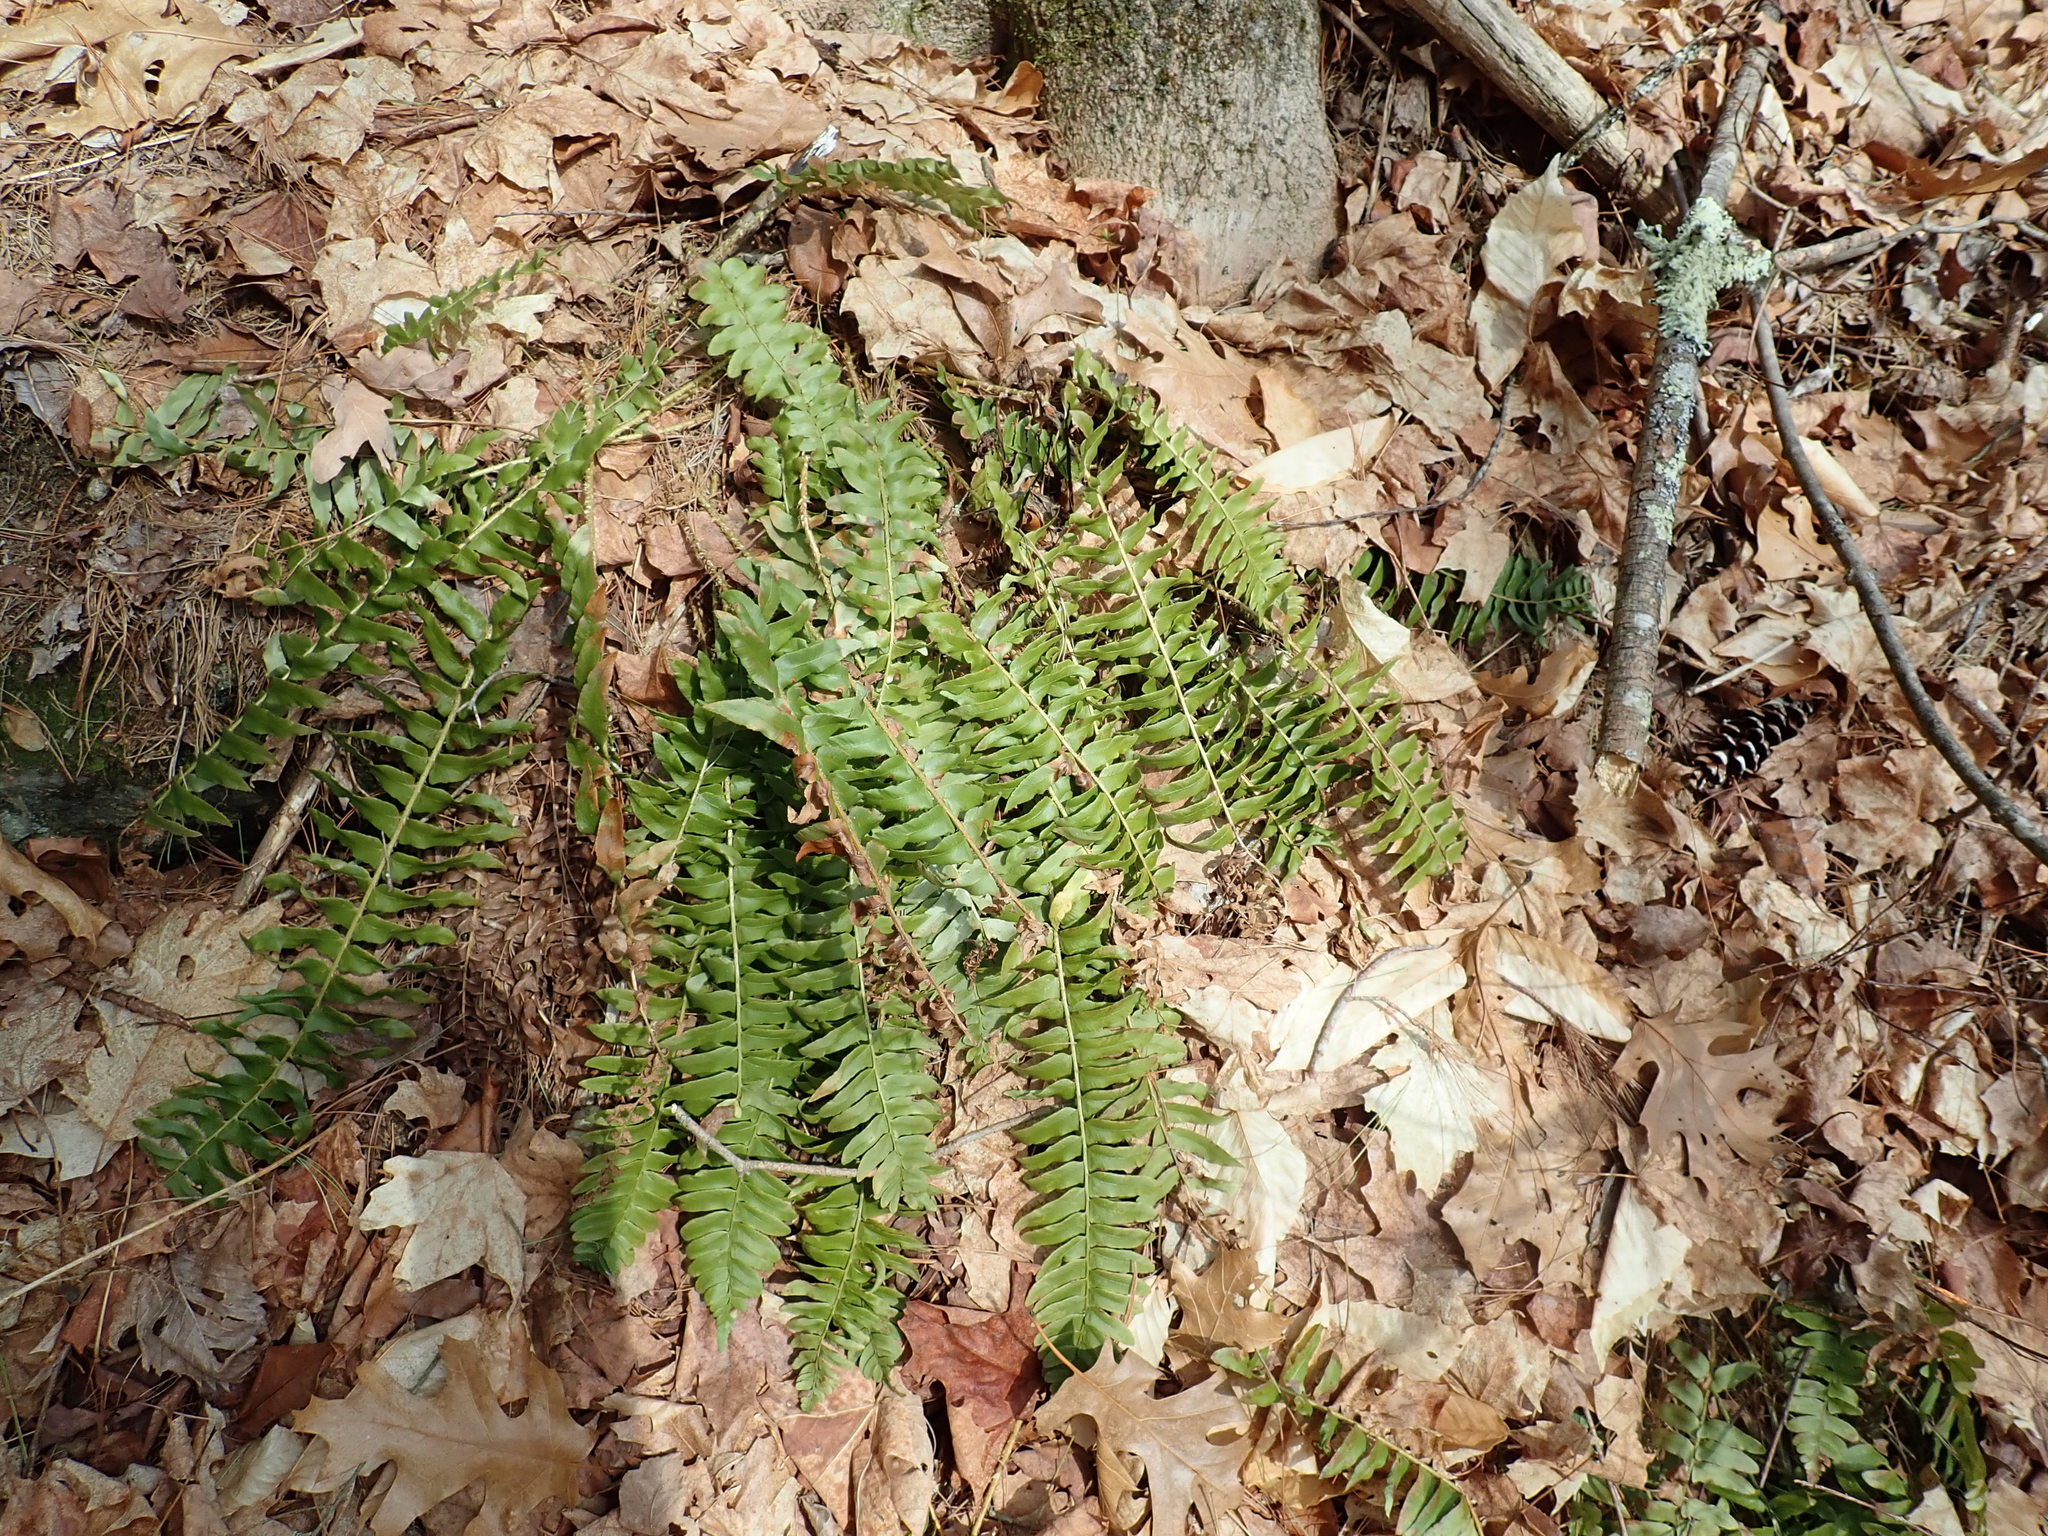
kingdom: Plantae
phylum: Tracheophyta
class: Polypodiopsida
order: Polypodiales
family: Dryopteridaceae
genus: Polystichum
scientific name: Polystichum acrostichoides
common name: Christmas fern
